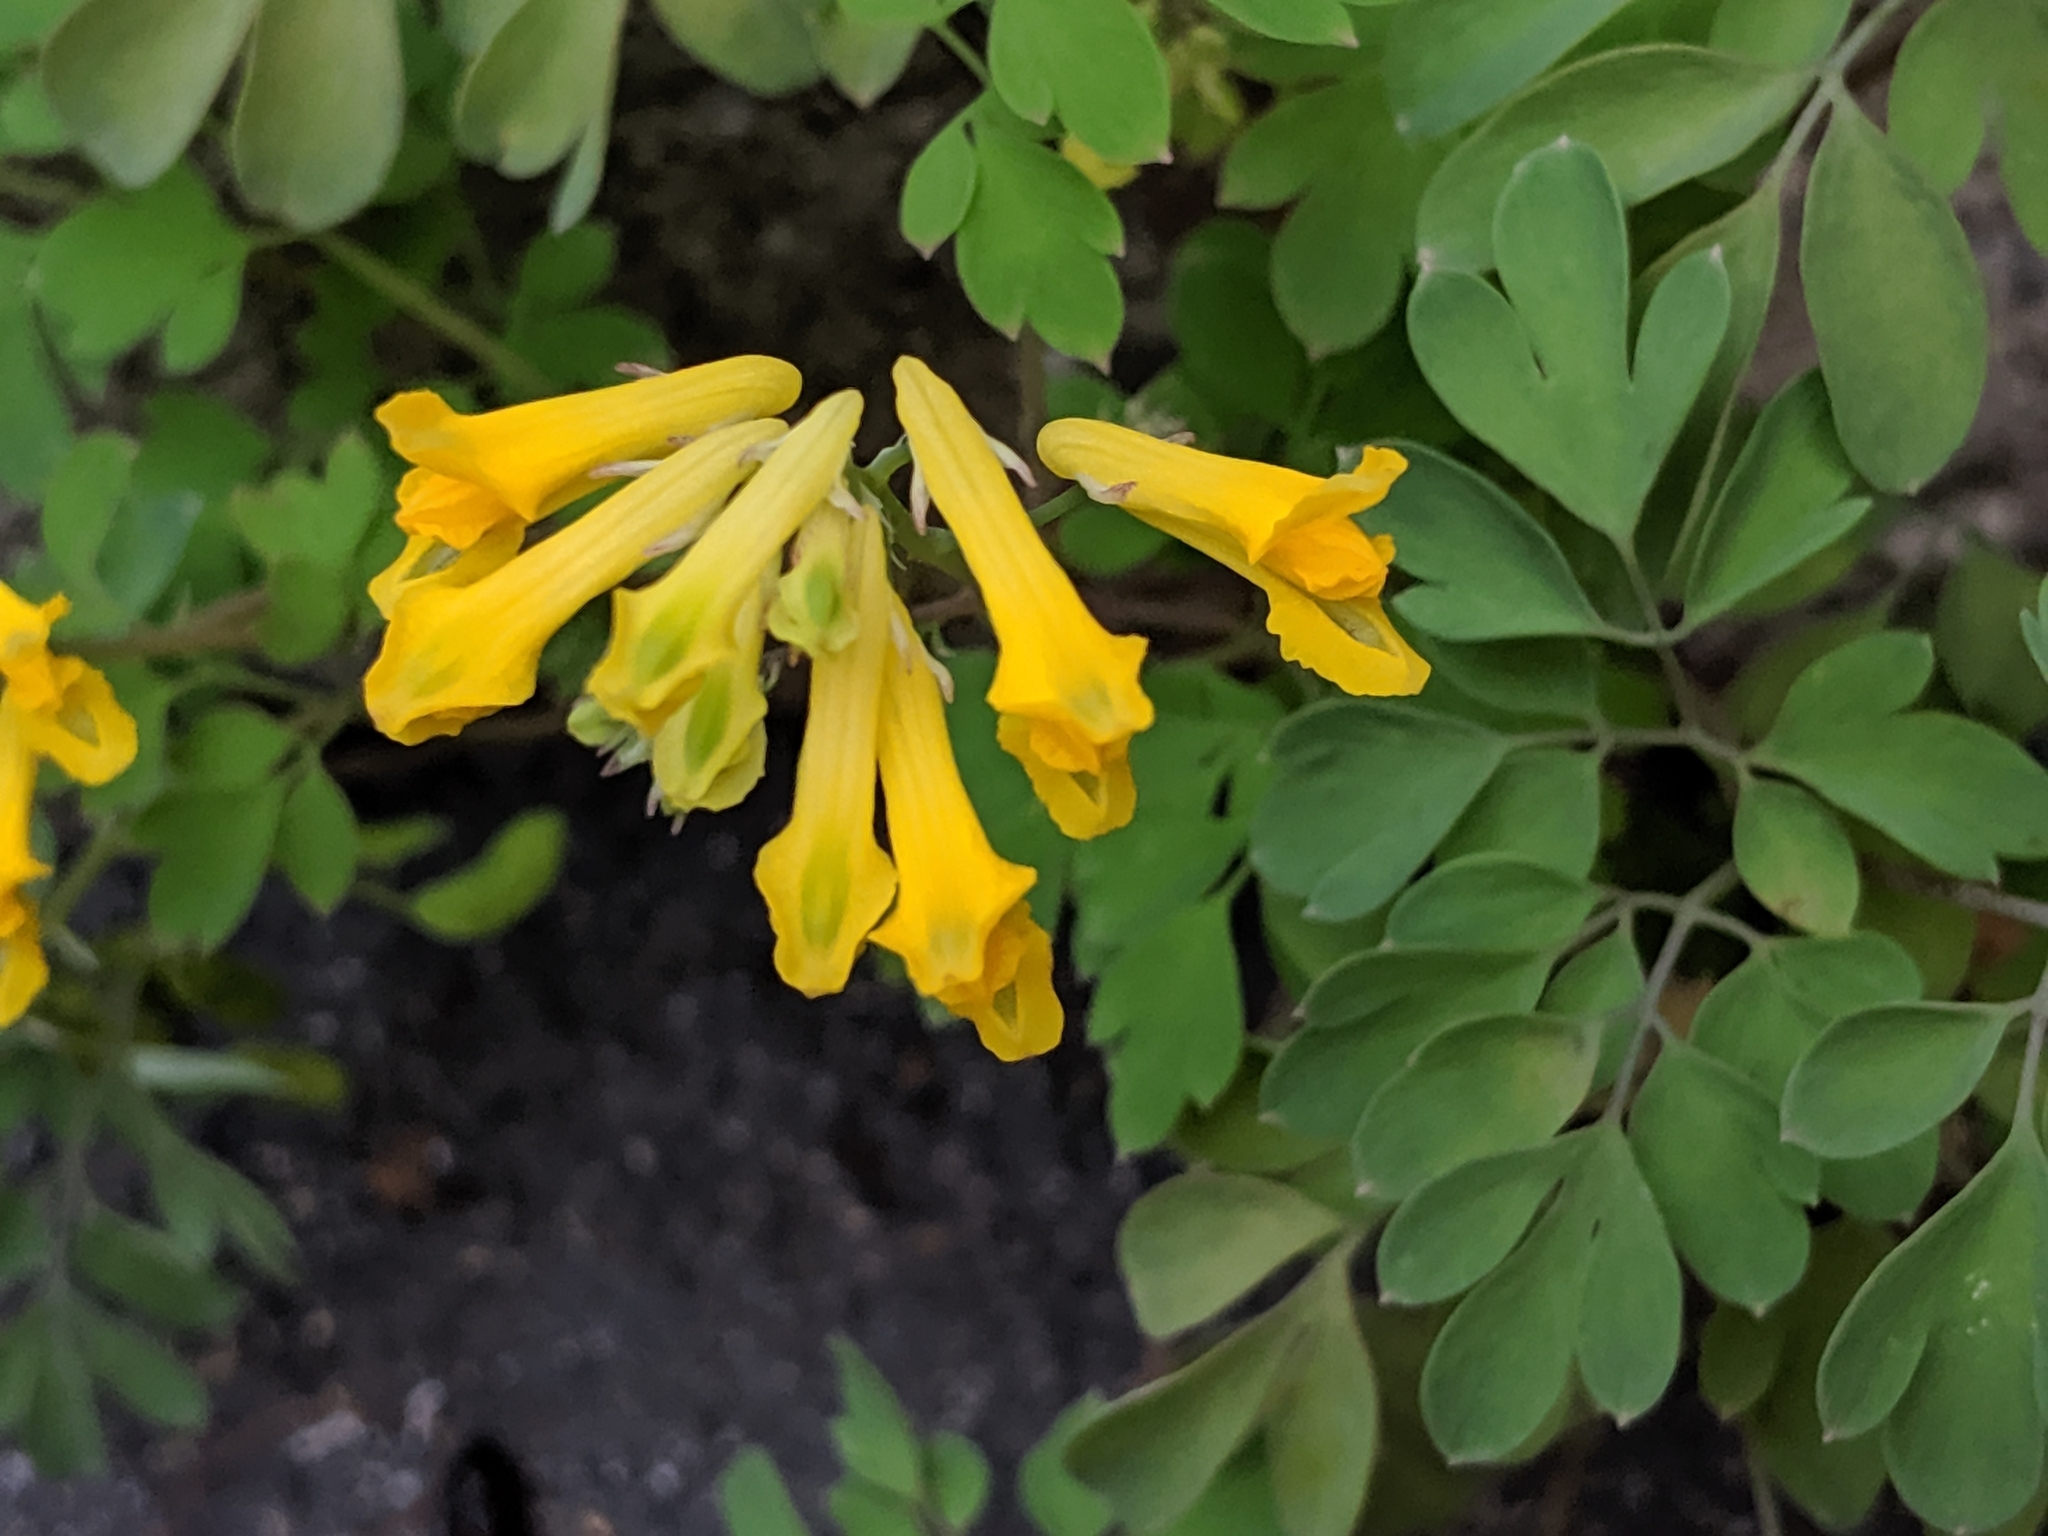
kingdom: Plantae
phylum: Tracheophyta
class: Magnoliopsida
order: Ranunculales
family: Papaveraceae
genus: Pseudofumaria
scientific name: Pseudofumaria lutea
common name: Yellow corydalis
